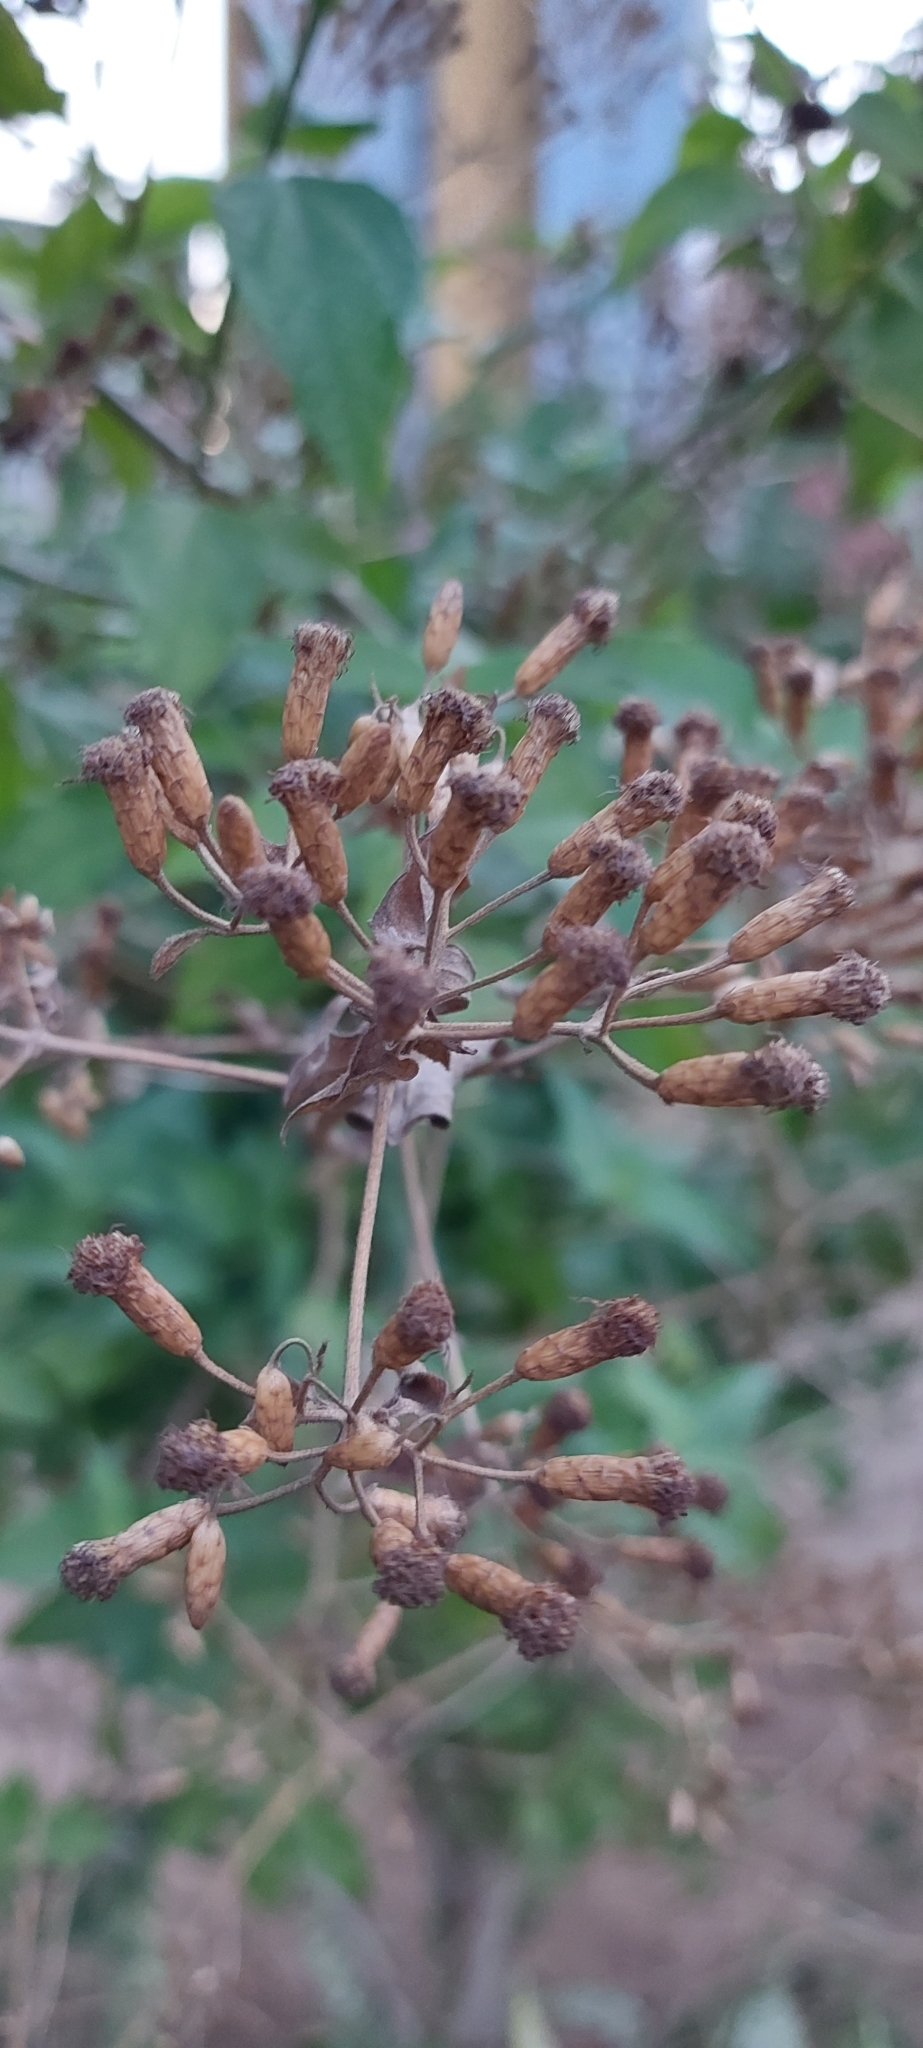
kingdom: Plantae
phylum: Tracheophyta
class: Magnoliopsida
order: Asterales
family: Asteraceae
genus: Chromolaena
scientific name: Chromolaena odorata
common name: Siamweed
